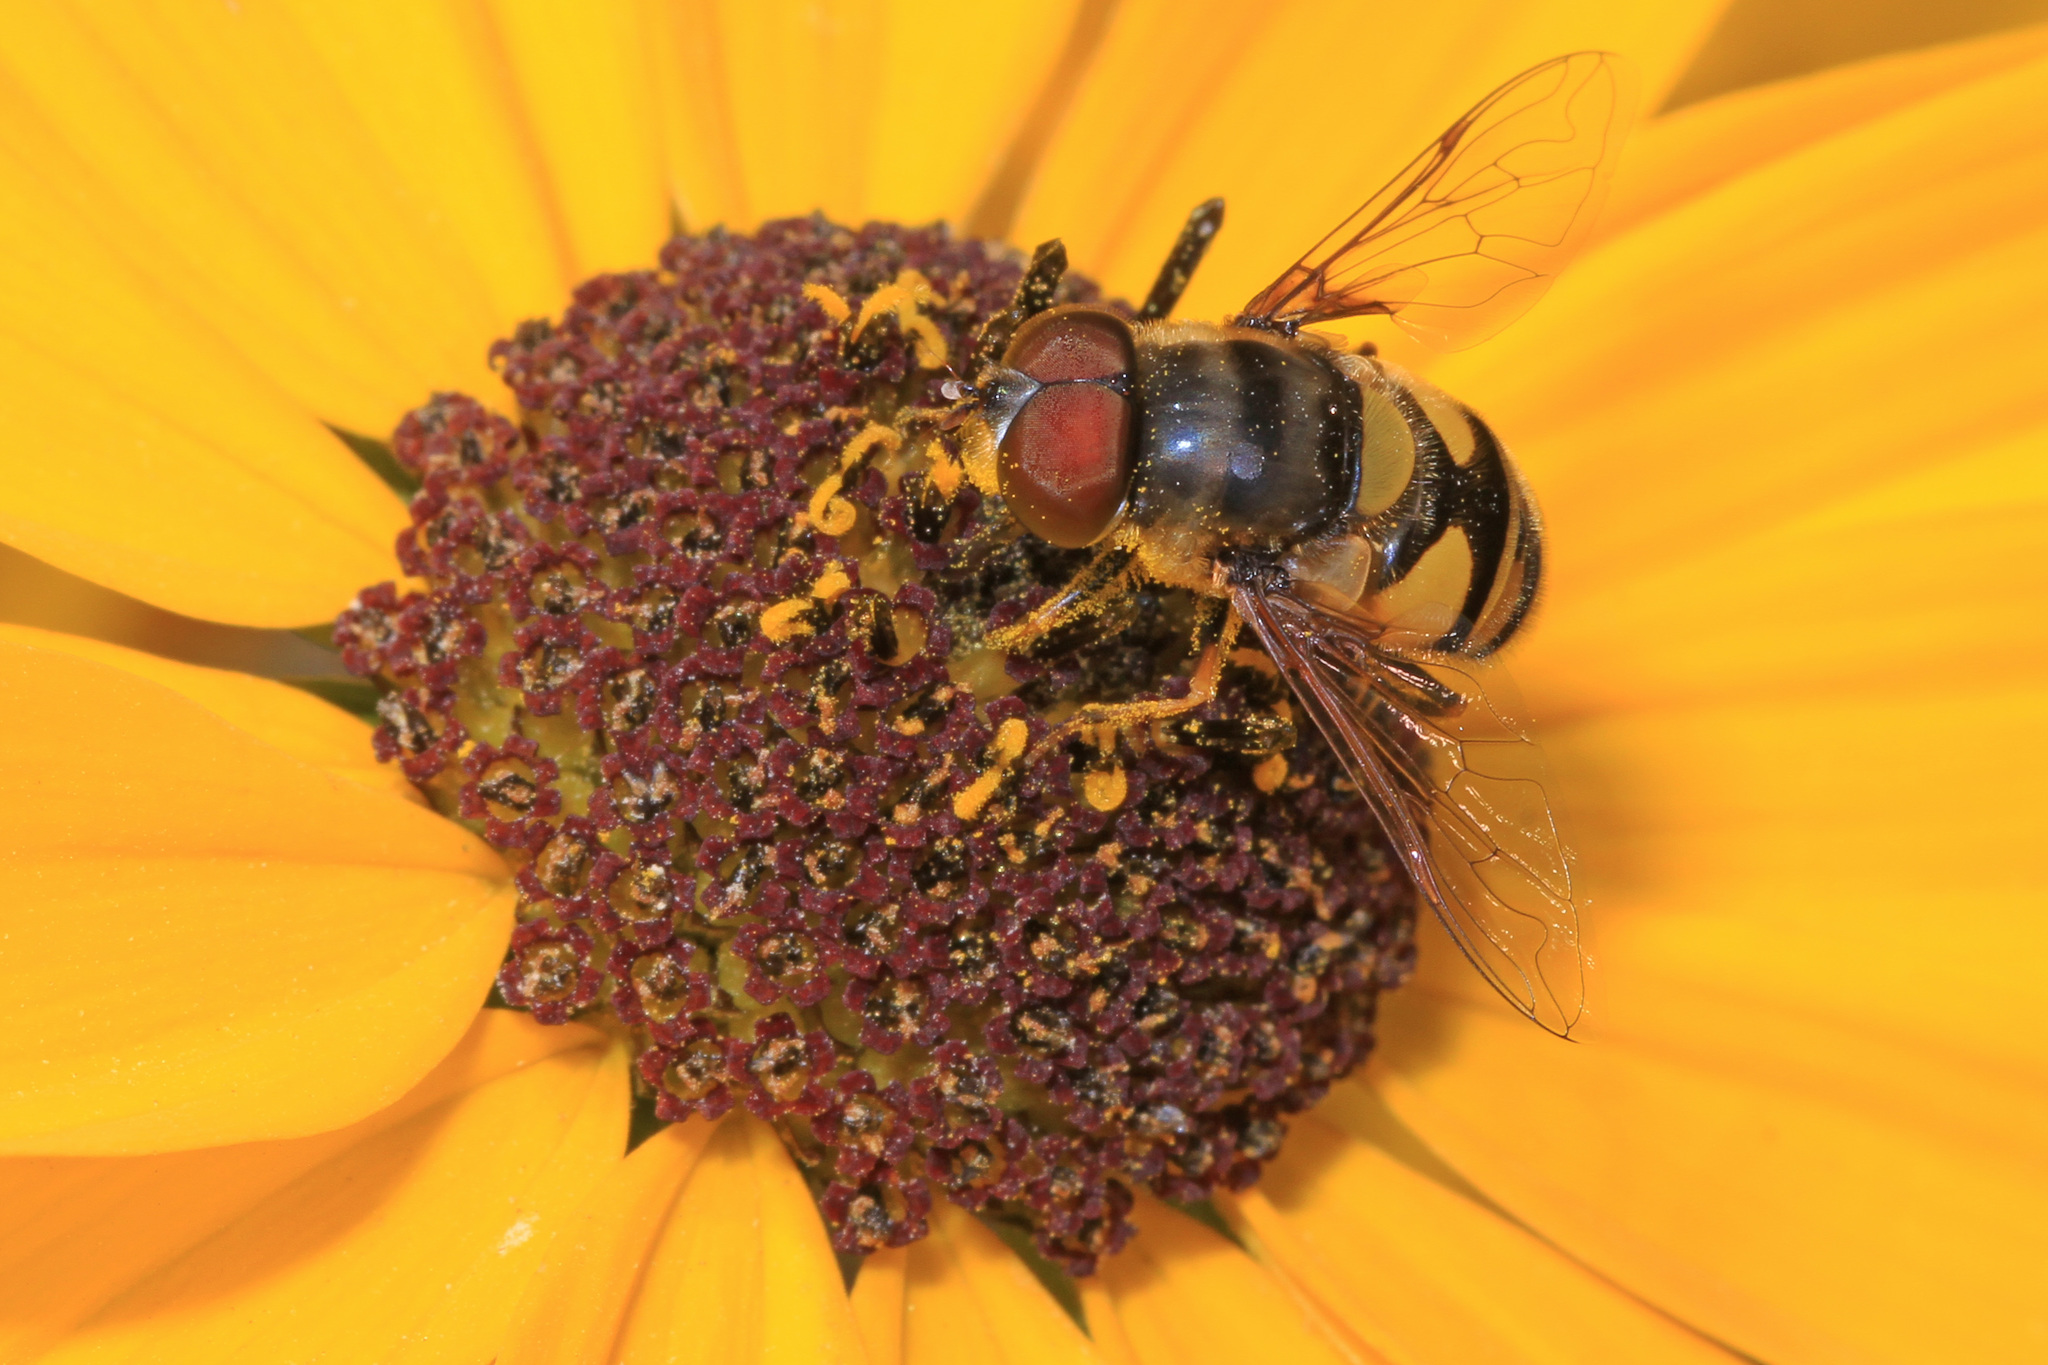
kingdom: Animalia
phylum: Arthropoda
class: Insecta
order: Diptera
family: Syrphidae
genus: Eristalis
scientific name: Eristalis transversa
